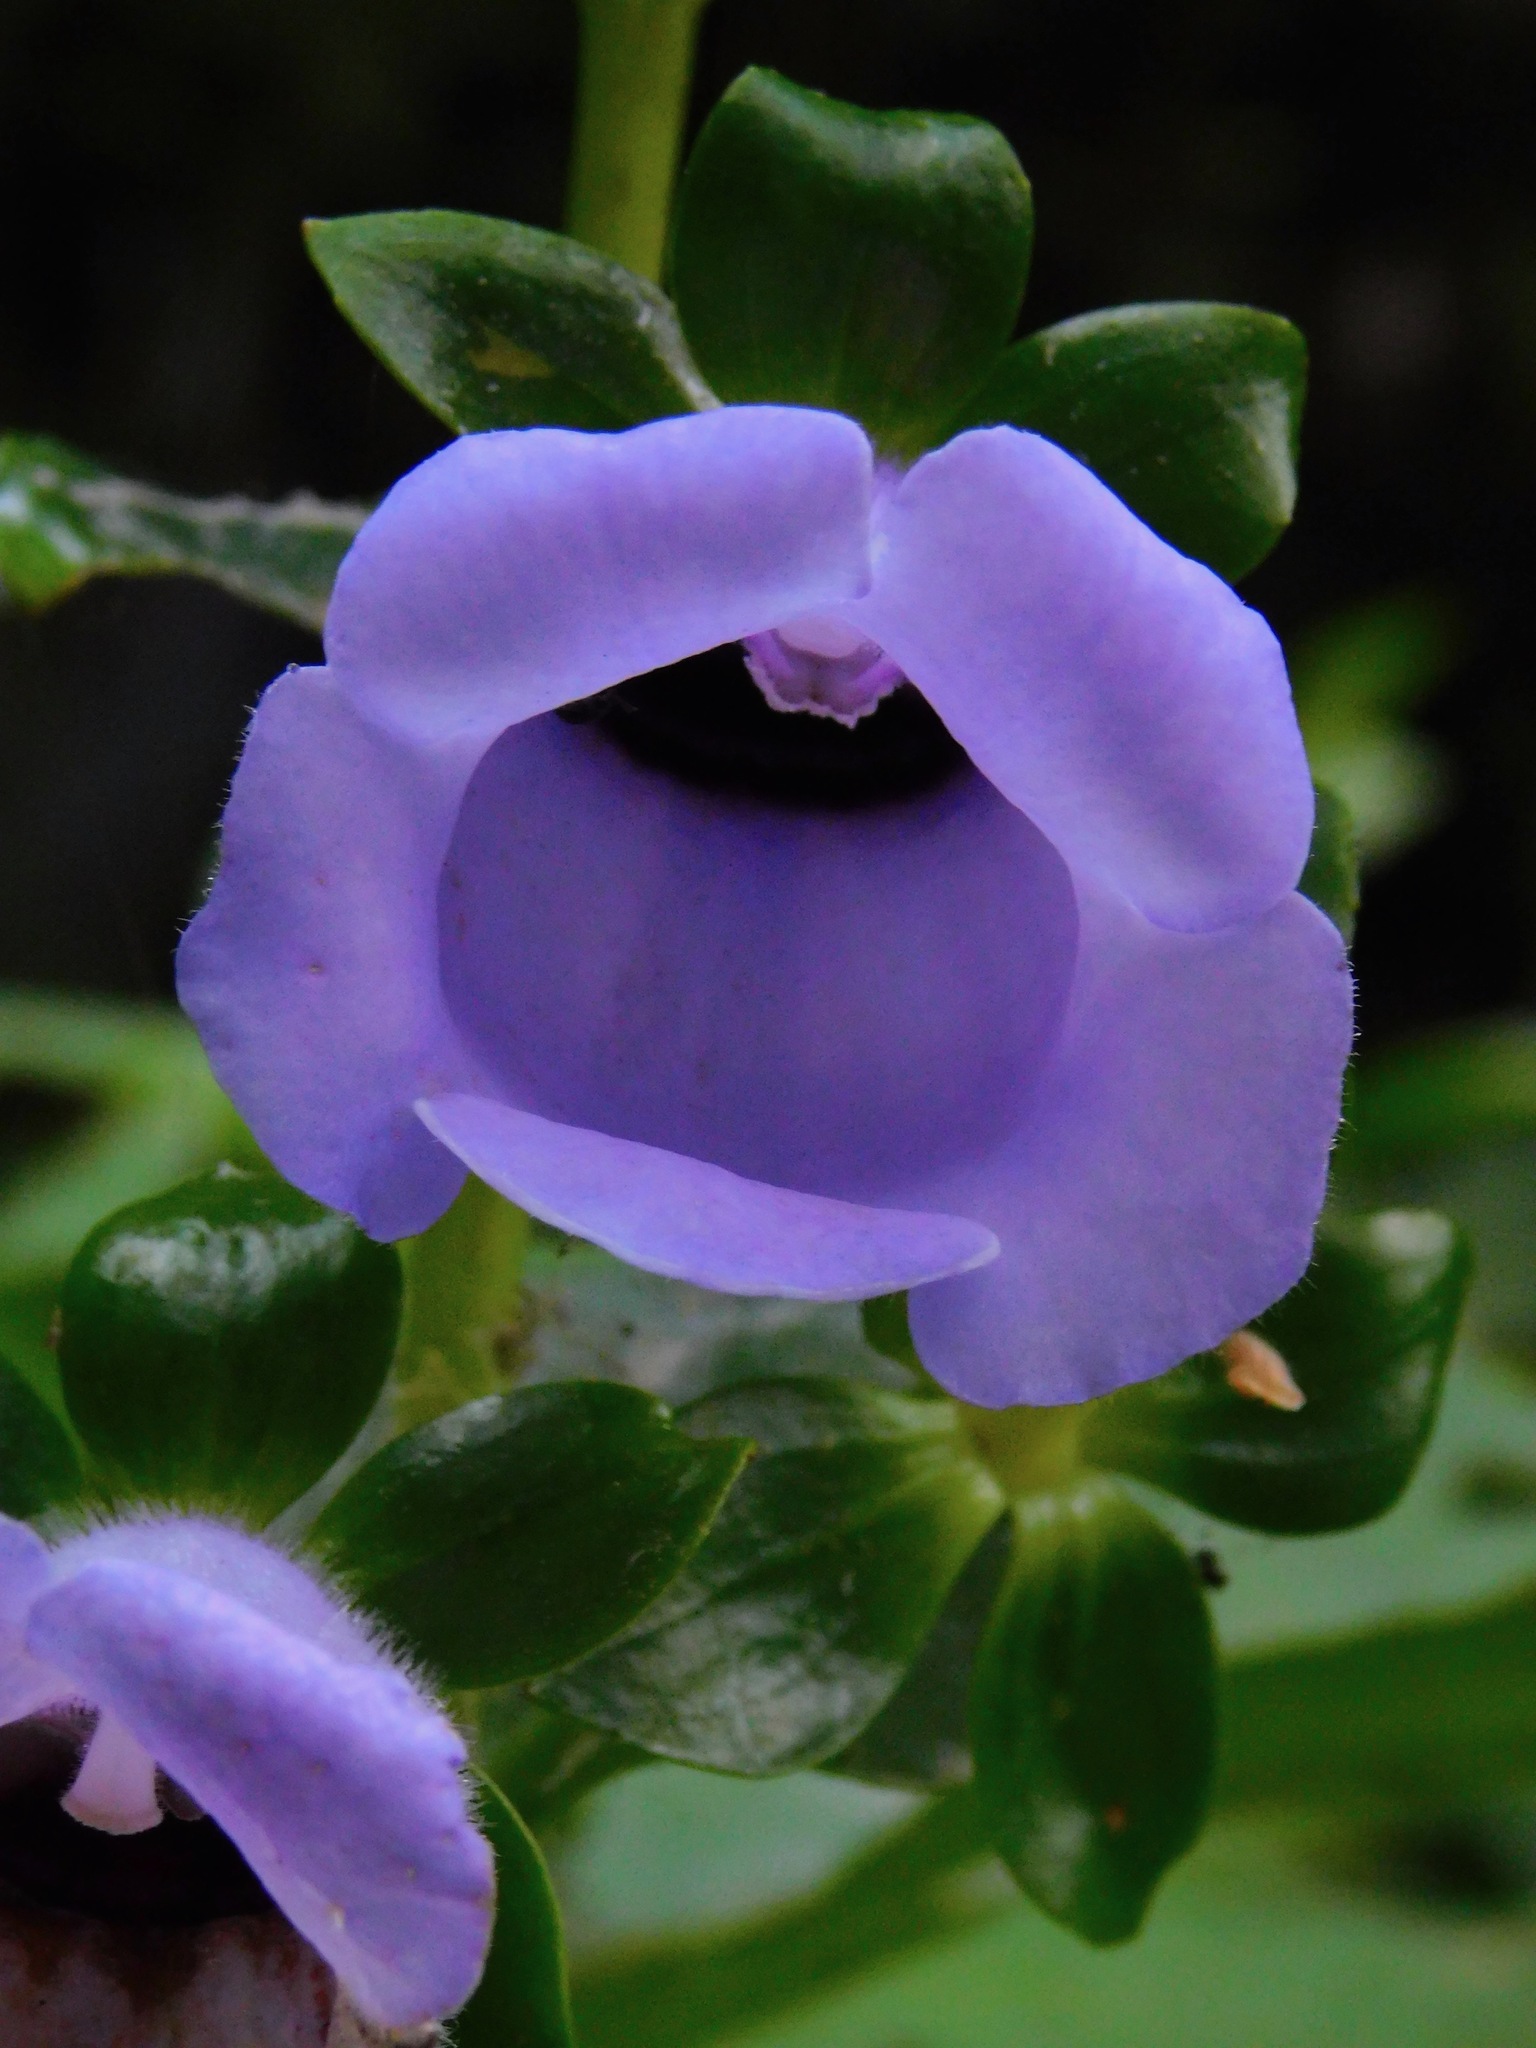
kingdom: Plantae
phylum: Tracheophyta
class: Magnoliopsida
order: Lamiales
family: Gesneriaceae
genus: Gloxinia
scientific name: Gloxinia perennis
